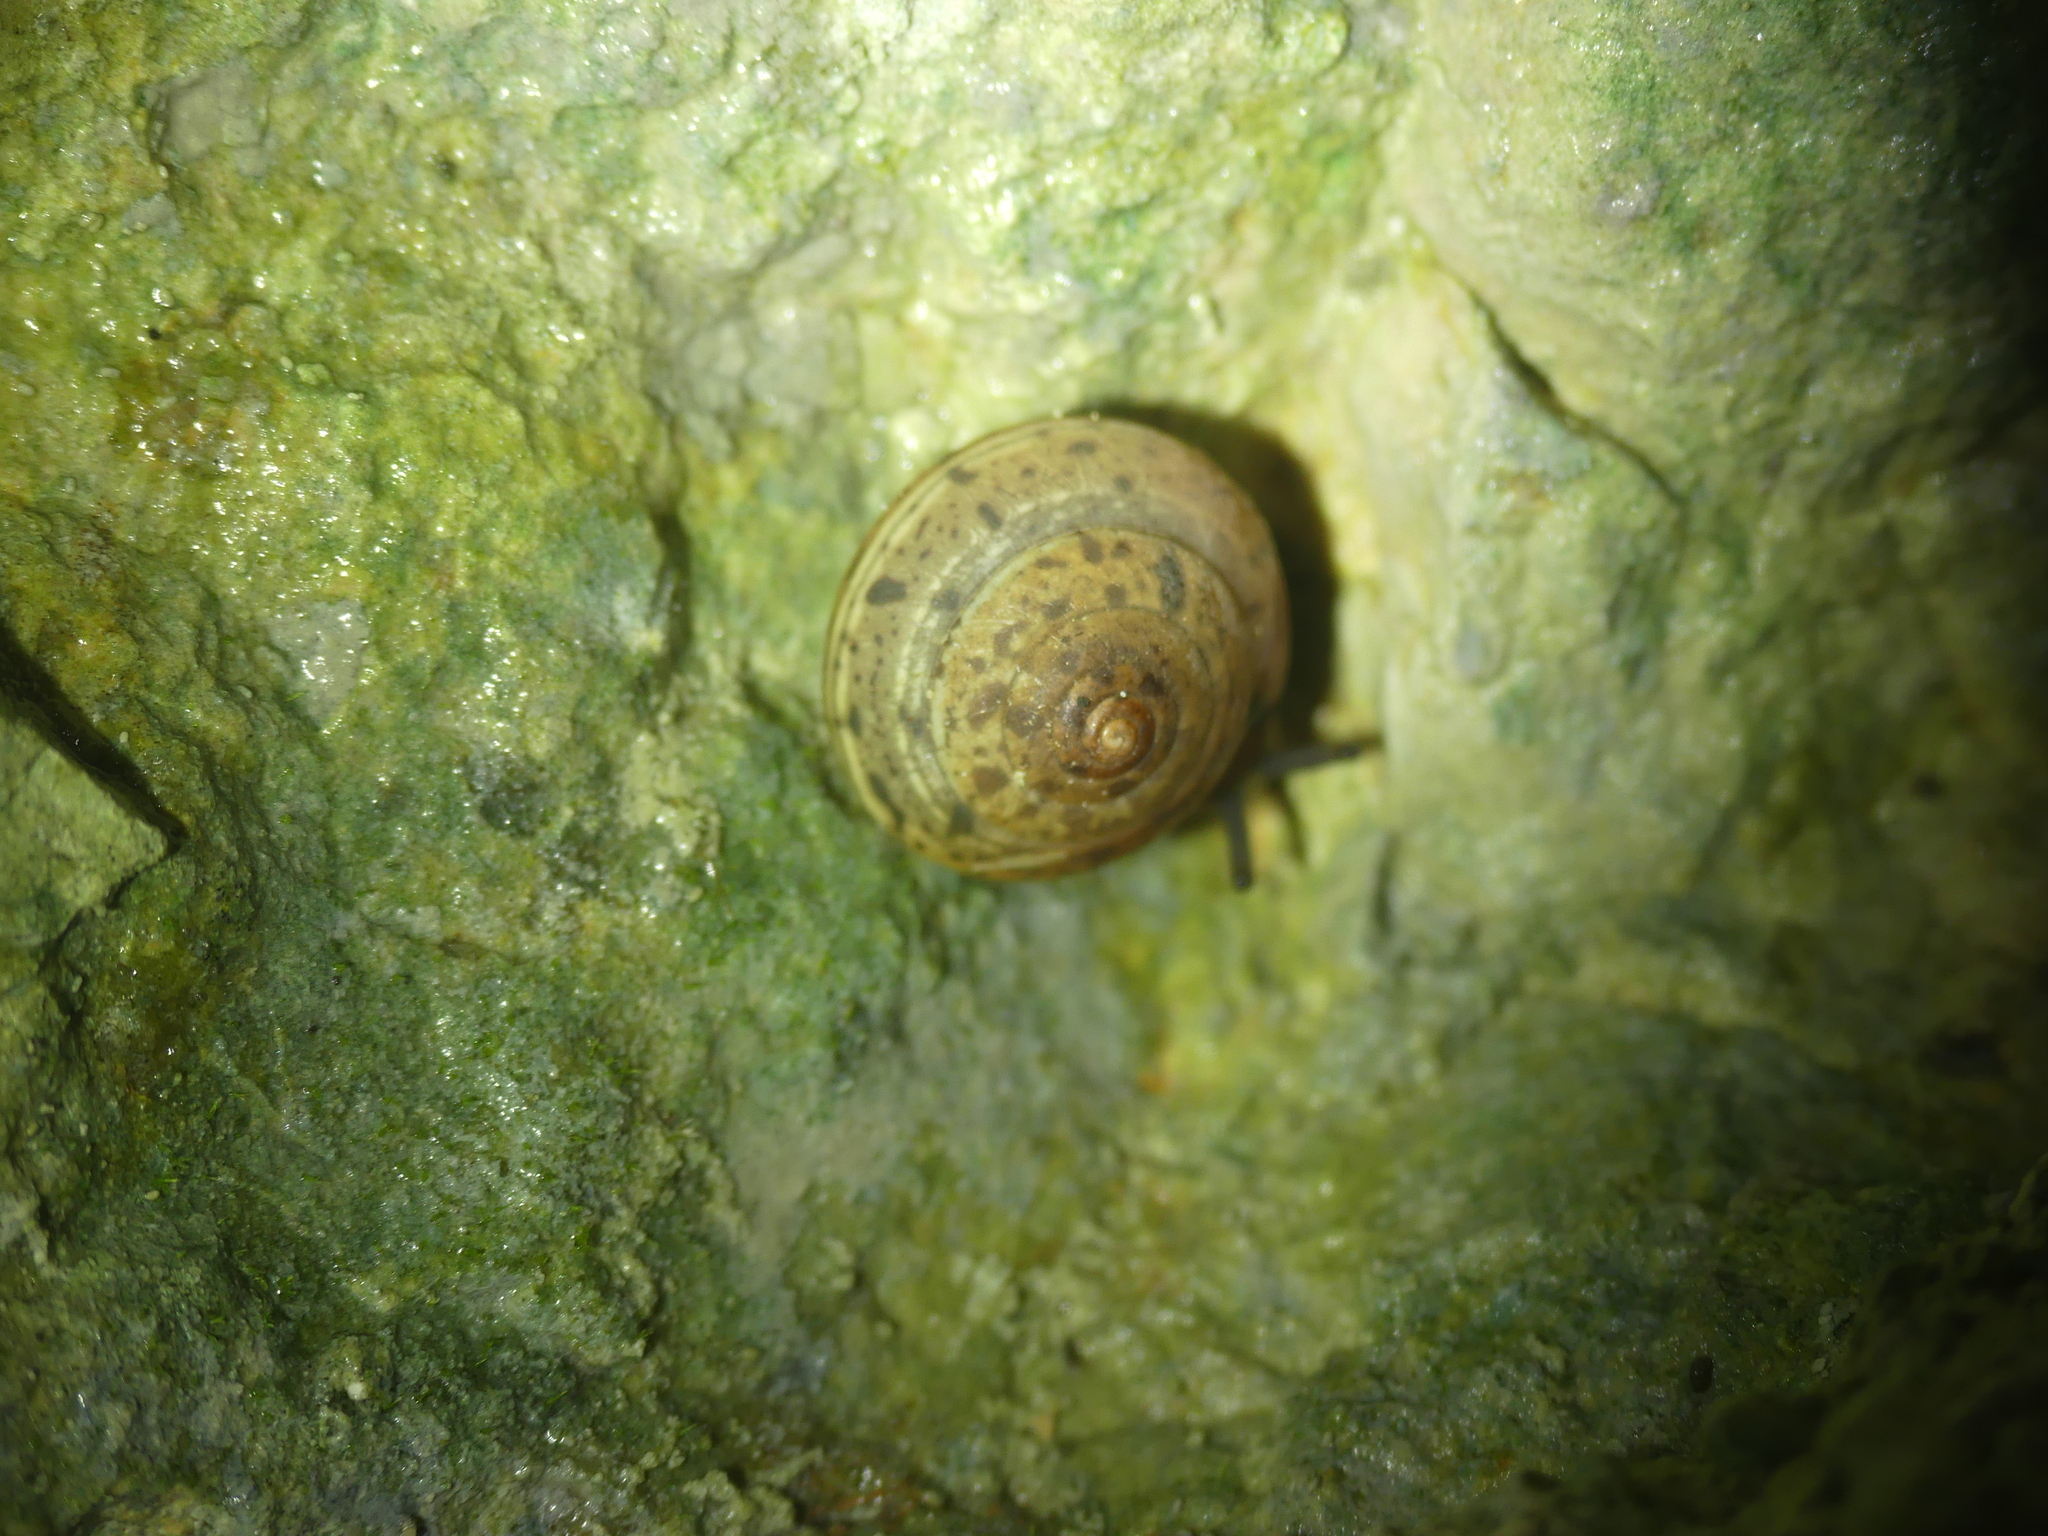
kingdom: Animalia
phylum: Mollusca
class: Gastropoda
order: Stylommatophora
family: Helicidae
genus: Helicigona
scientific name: Helicigona lapicida
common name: Lapidary snail
